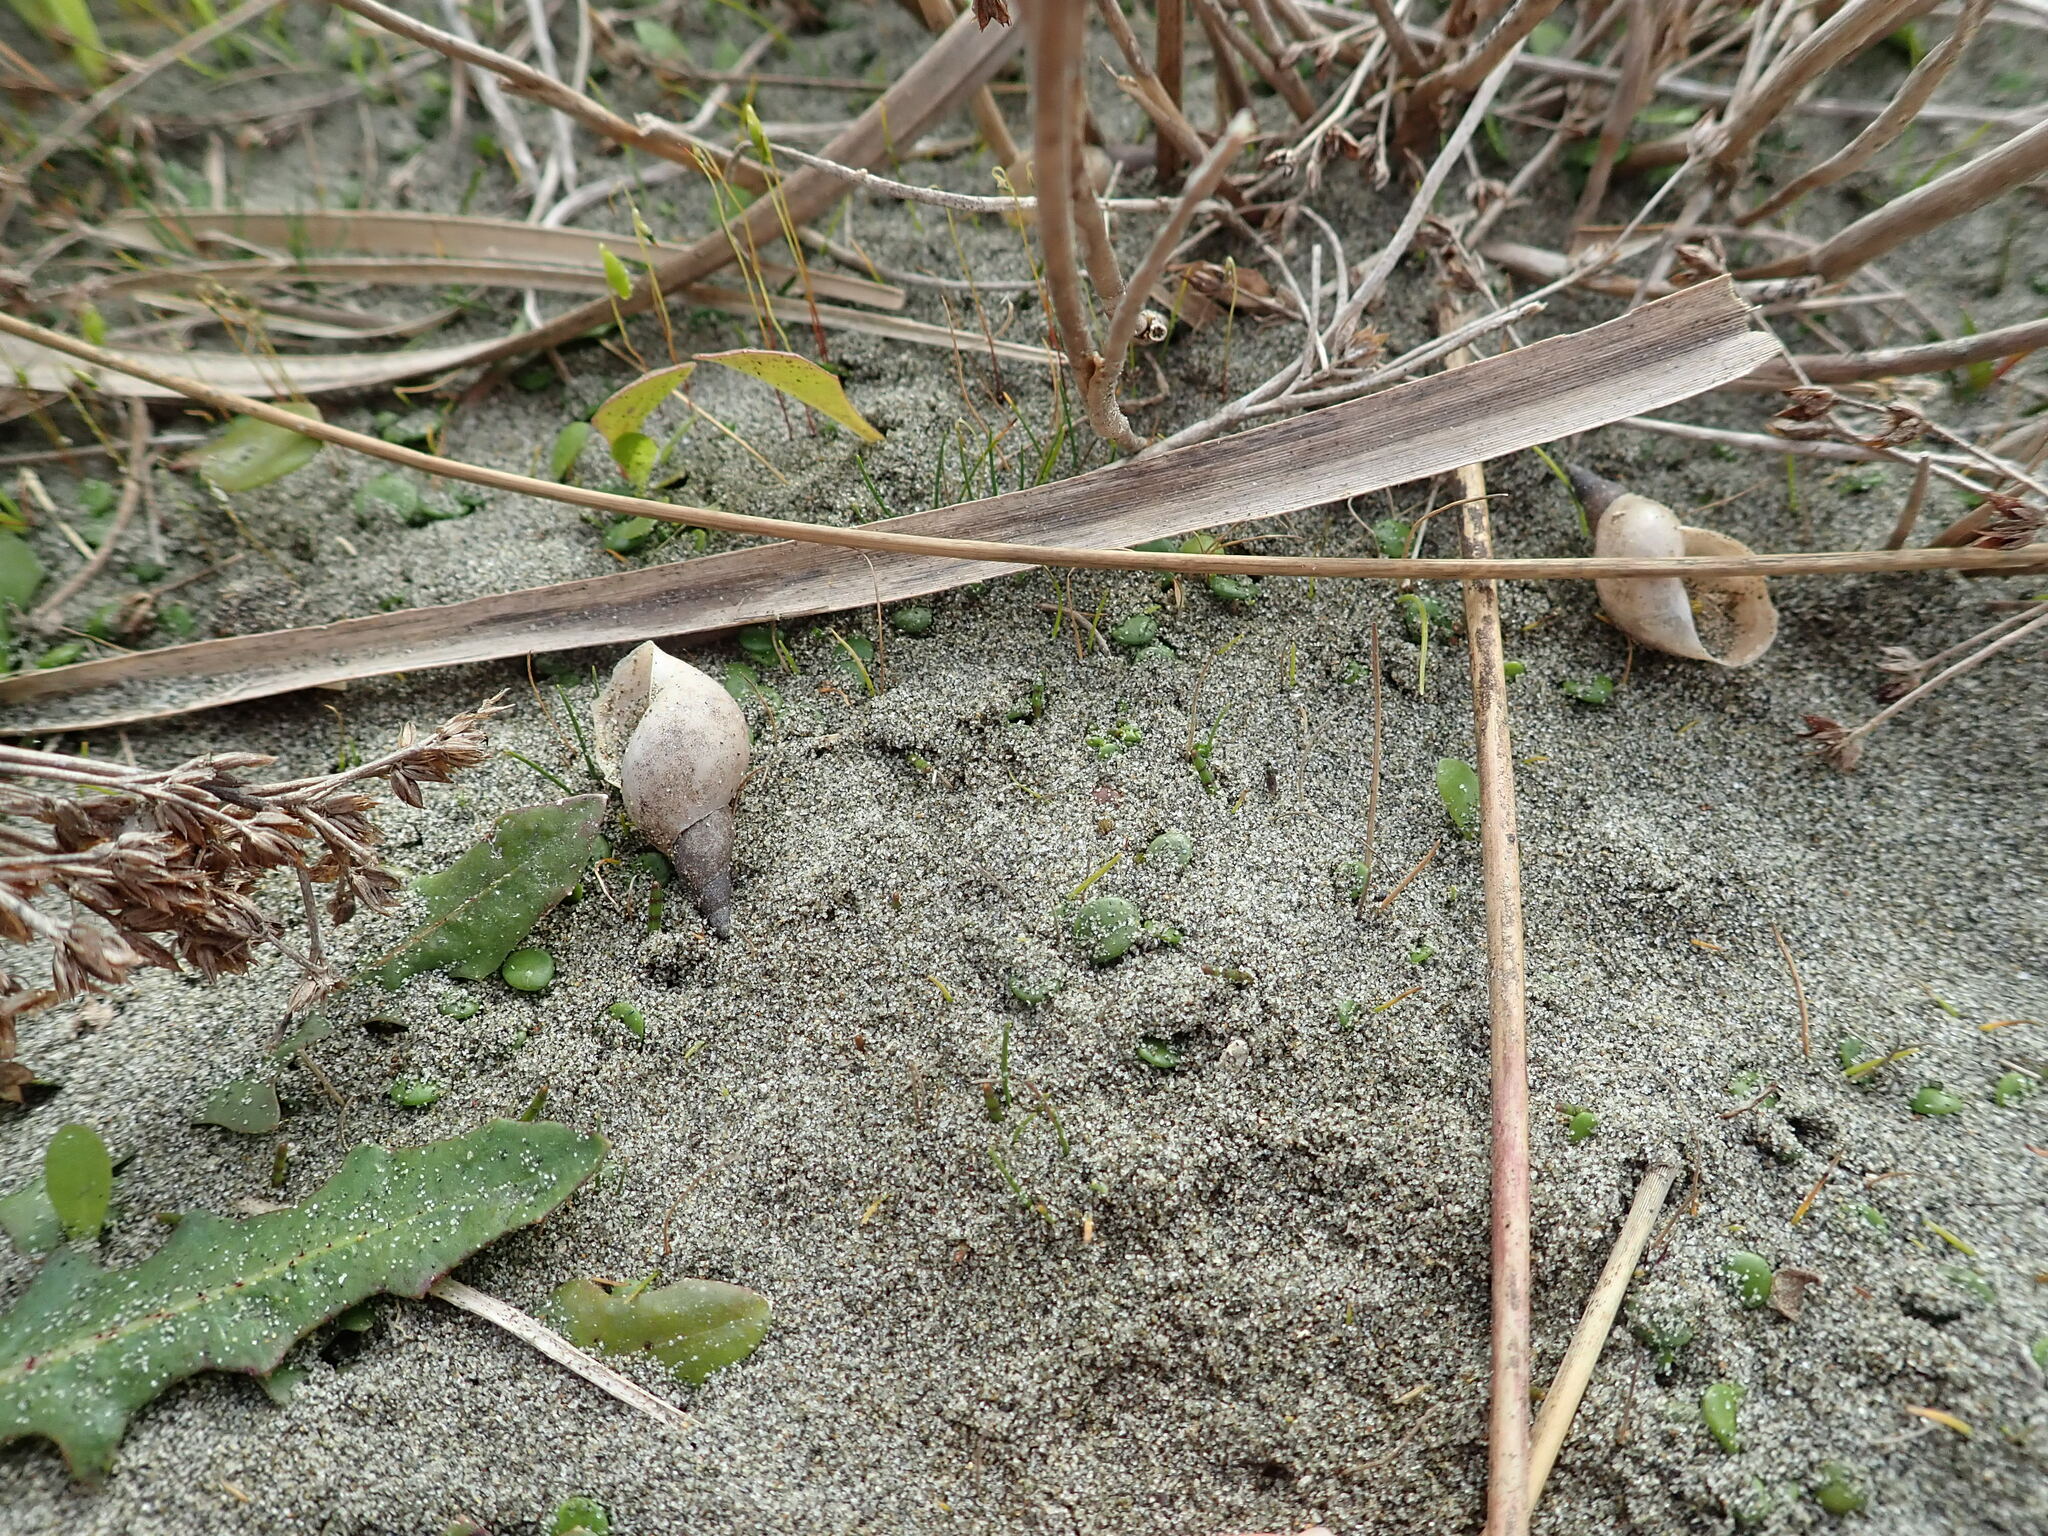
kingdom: Animalia
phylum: Mollusca
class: Gastropoda
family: Lymnaeidae
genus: Lymnaea
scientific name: Lymnaea stagnalis
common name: Great pond snail
